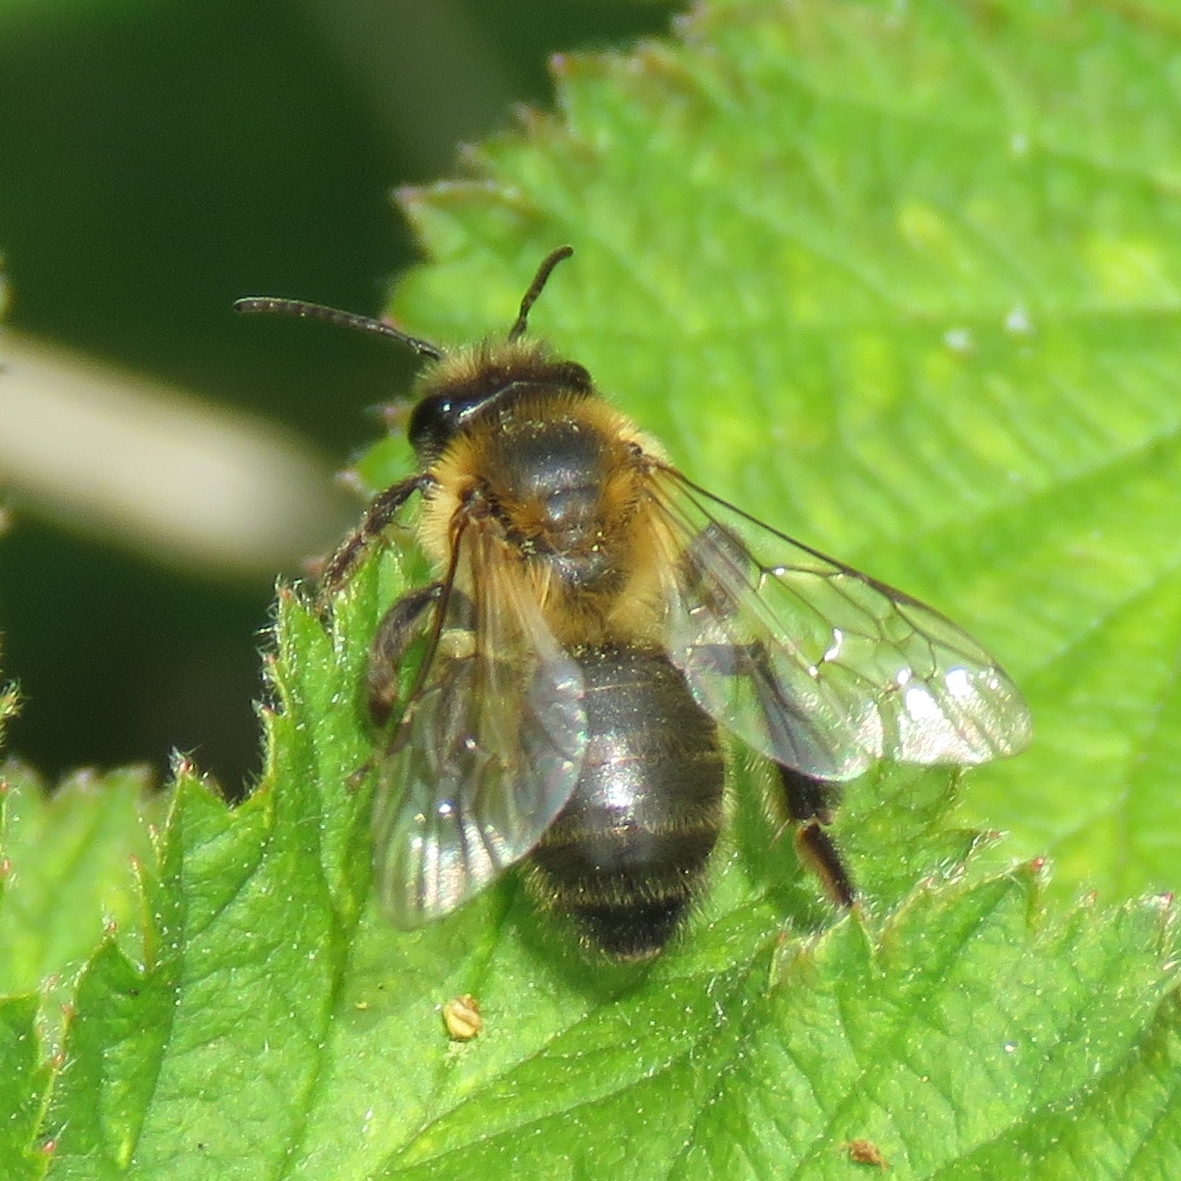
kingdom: Animalia
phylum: Arthropoda
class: Insecta
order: Hymenoptera
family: Andrenidae
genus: Andrena
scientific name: Andrena carantonica
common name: Chocolate mining bee
